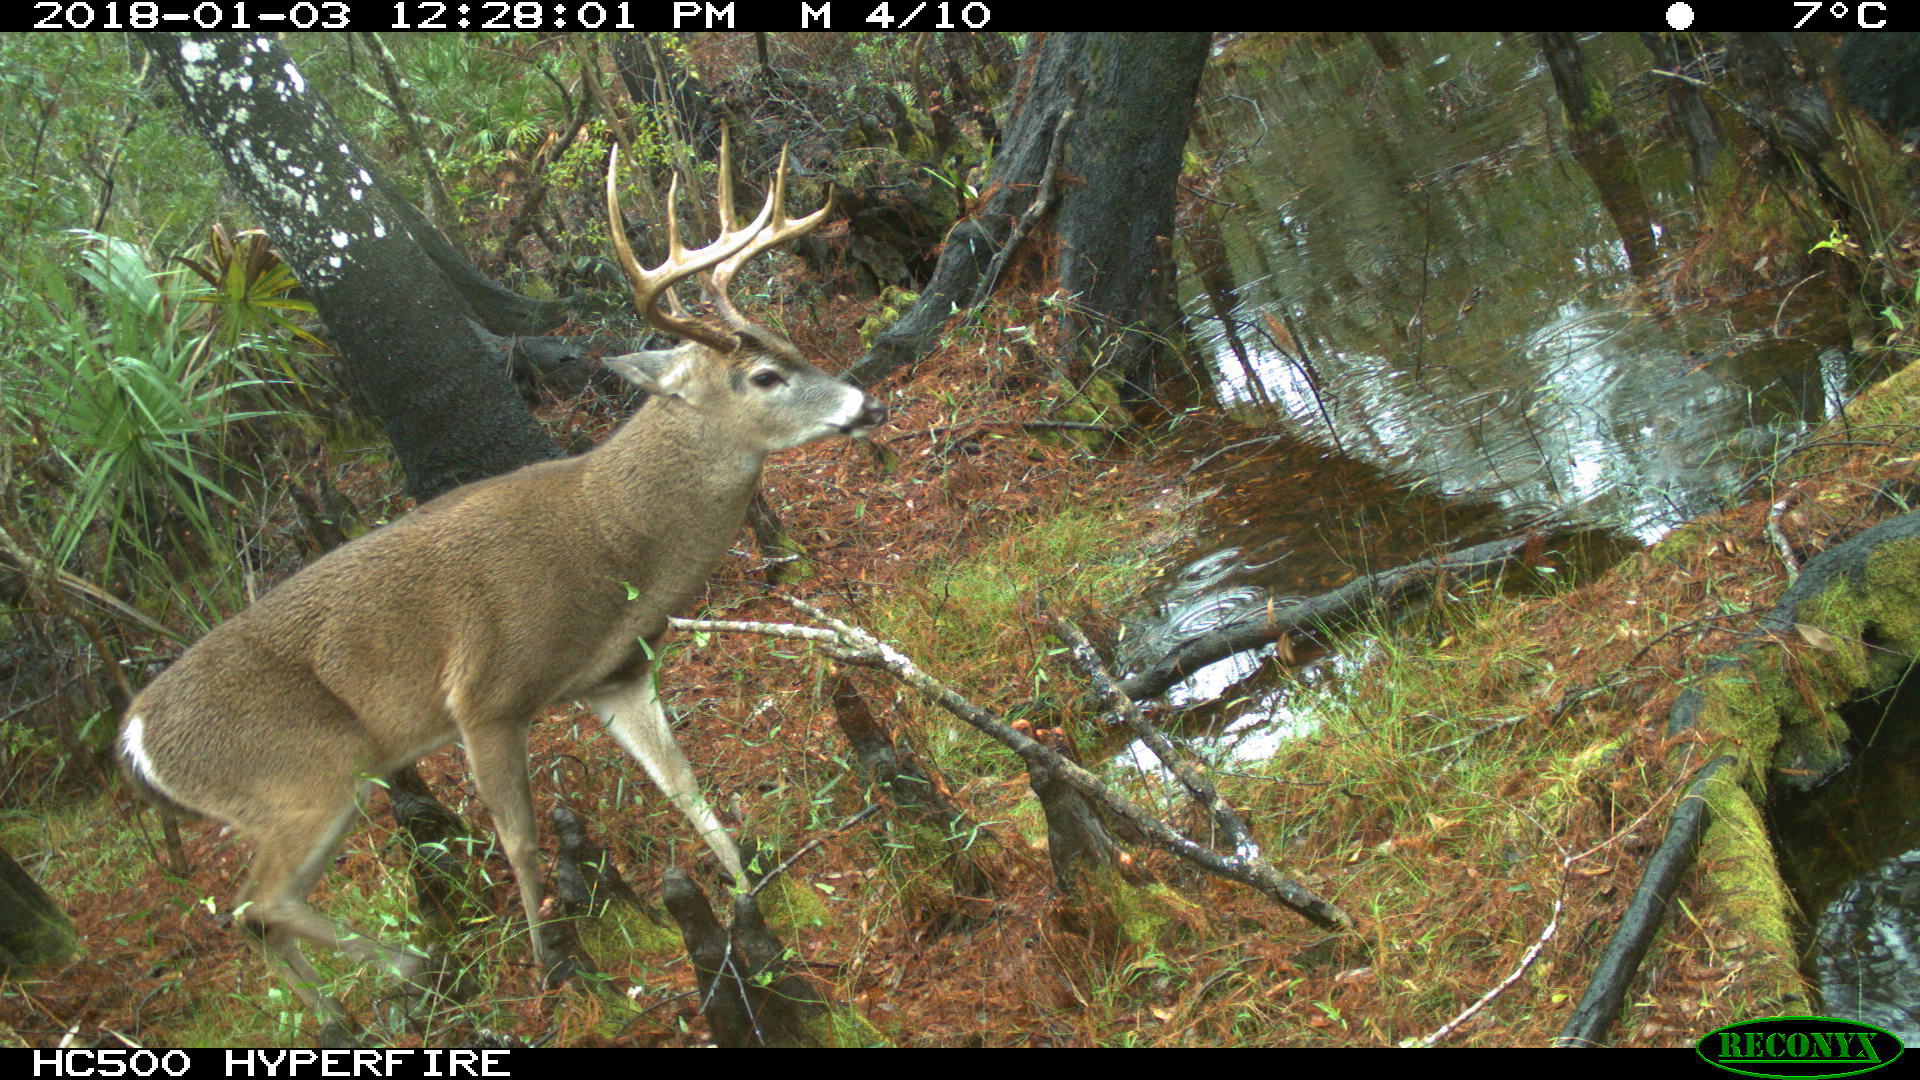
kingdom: Animalia
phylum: Chordata
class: Mammalia
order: Artiodactyla
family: Cervidae
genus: Odocoileus
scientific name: Odocoileus virginianus
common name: White-tailed deer
